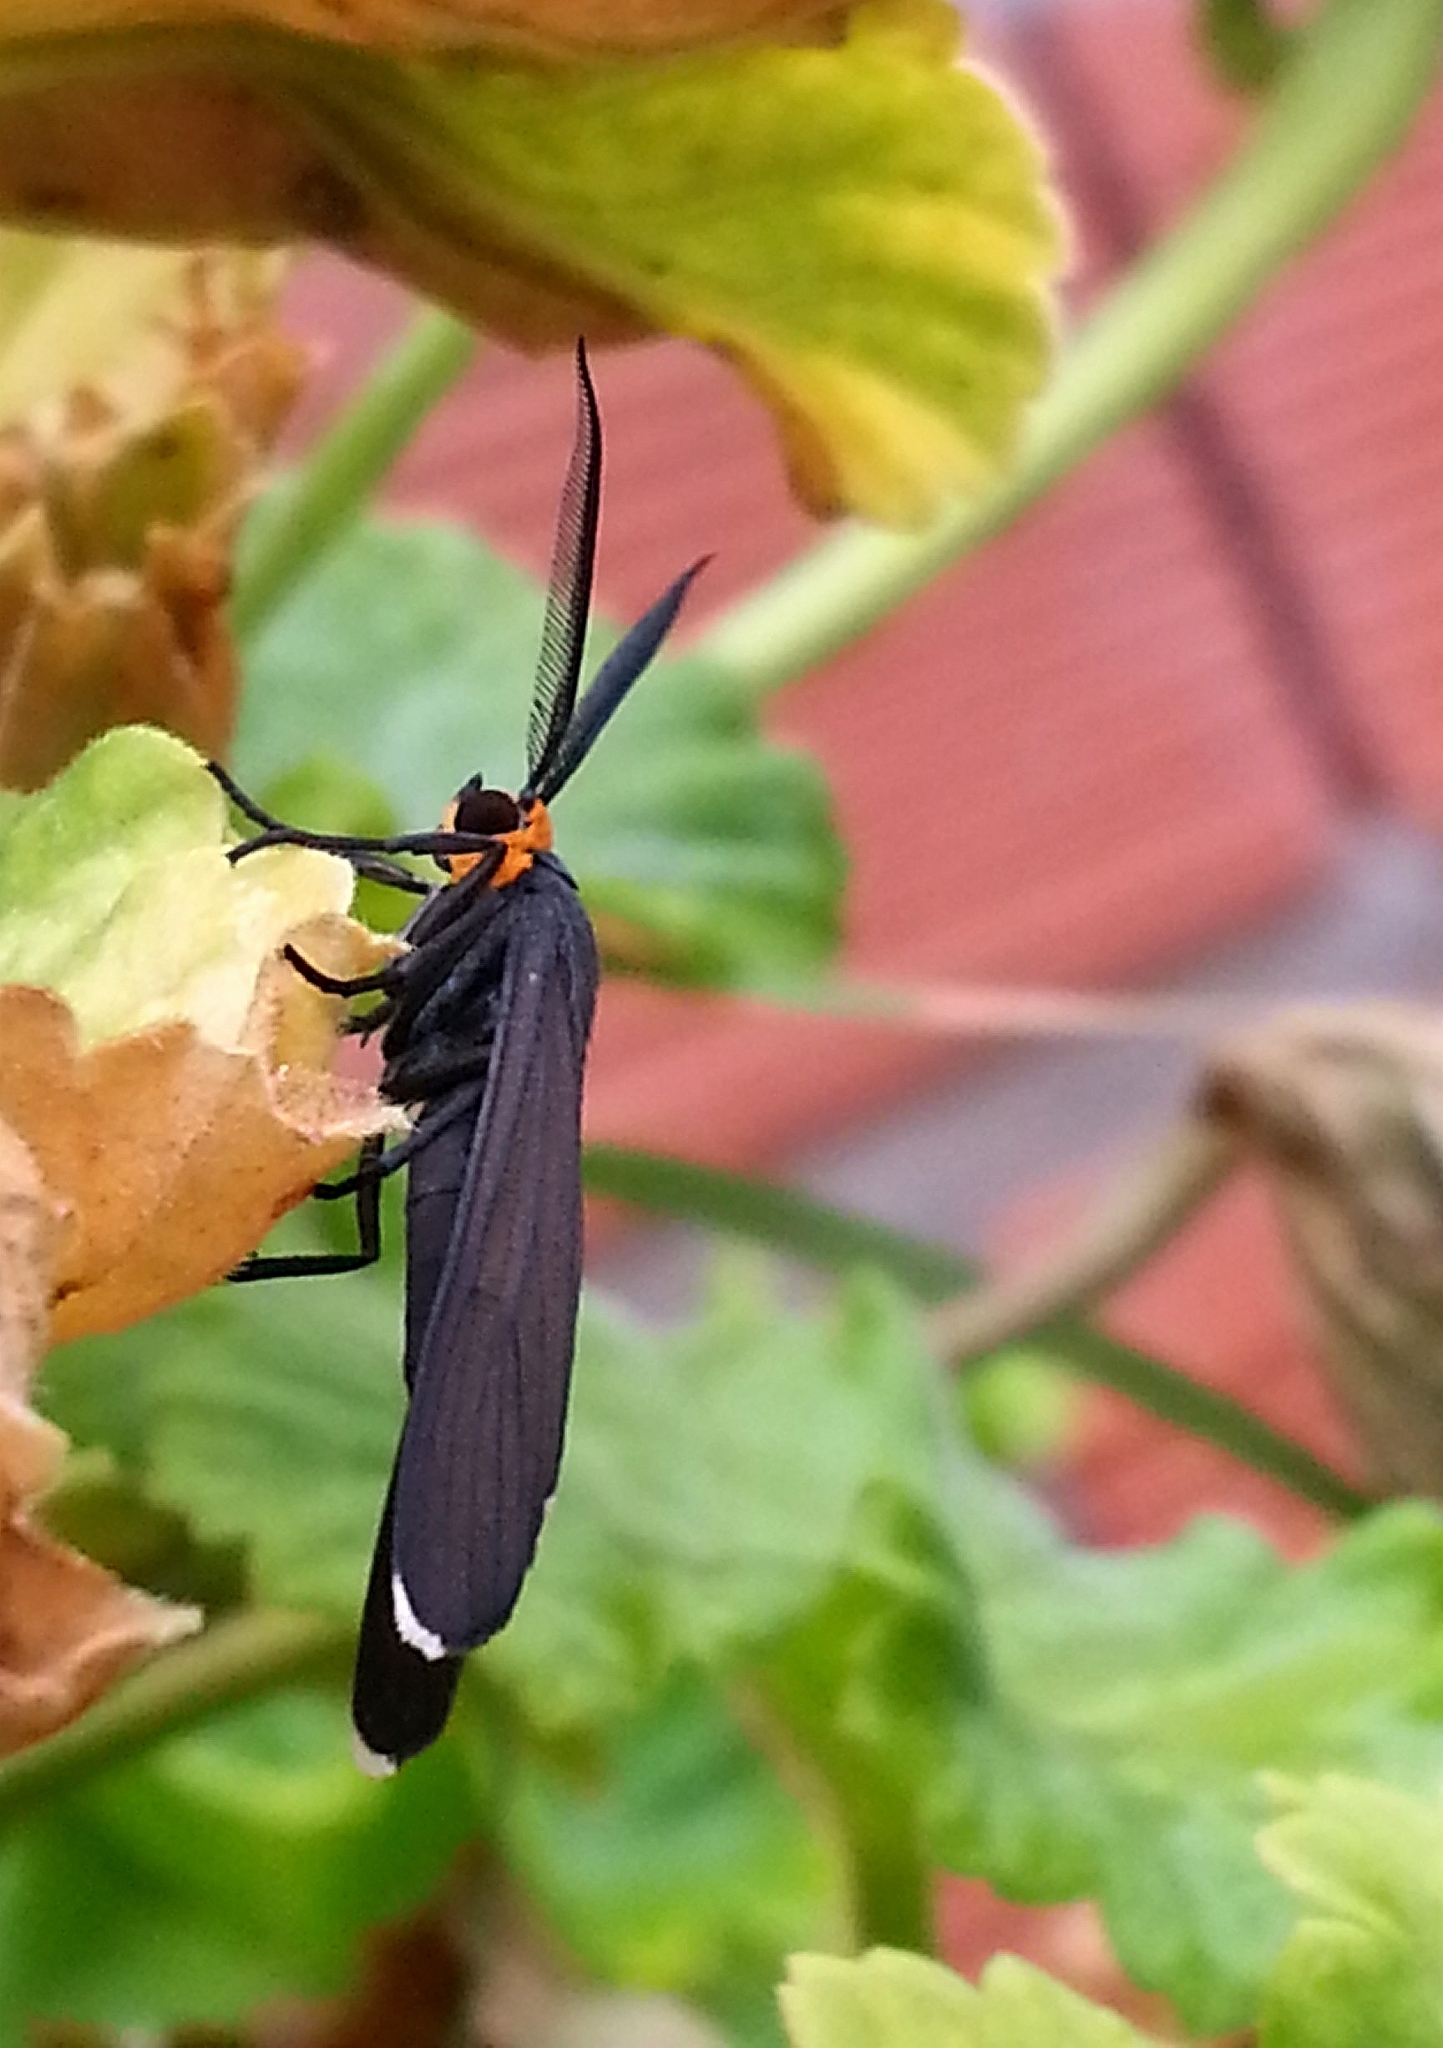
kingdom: Animalia
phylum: Arthropoda
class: Insecta
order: Lepidoptera
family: Erebidae
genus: Ctenucha
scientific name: Ctenucha rubriceps
